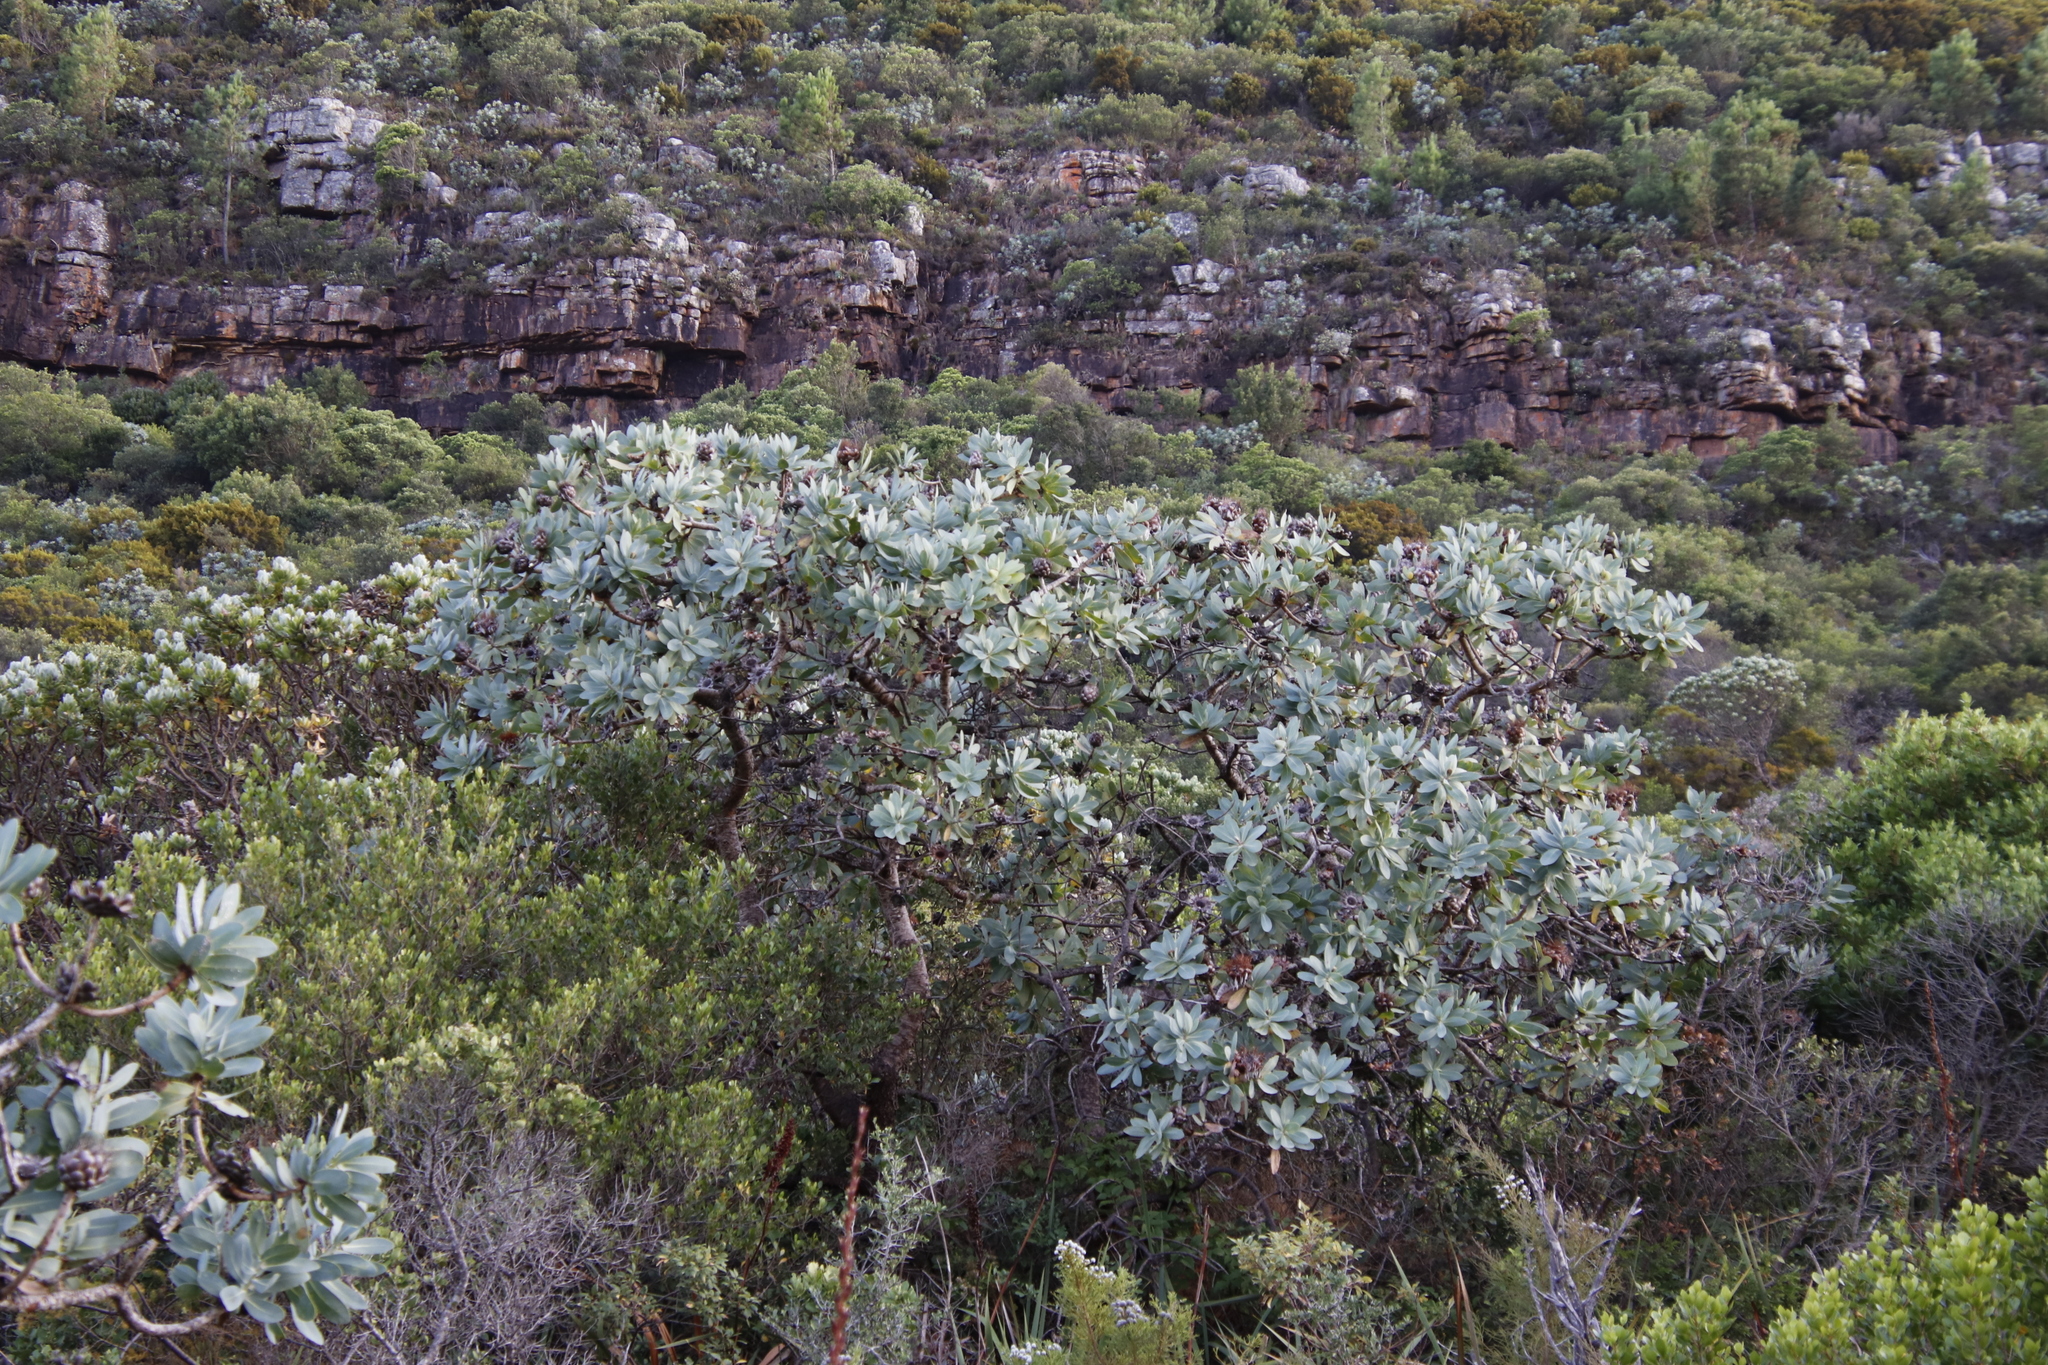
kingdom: Plantae
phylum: Tracheophyta
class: Magnoliopsida
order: Proteales
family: Proteaceae
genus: Protea
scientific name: Protea nitida
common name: Tree protea
